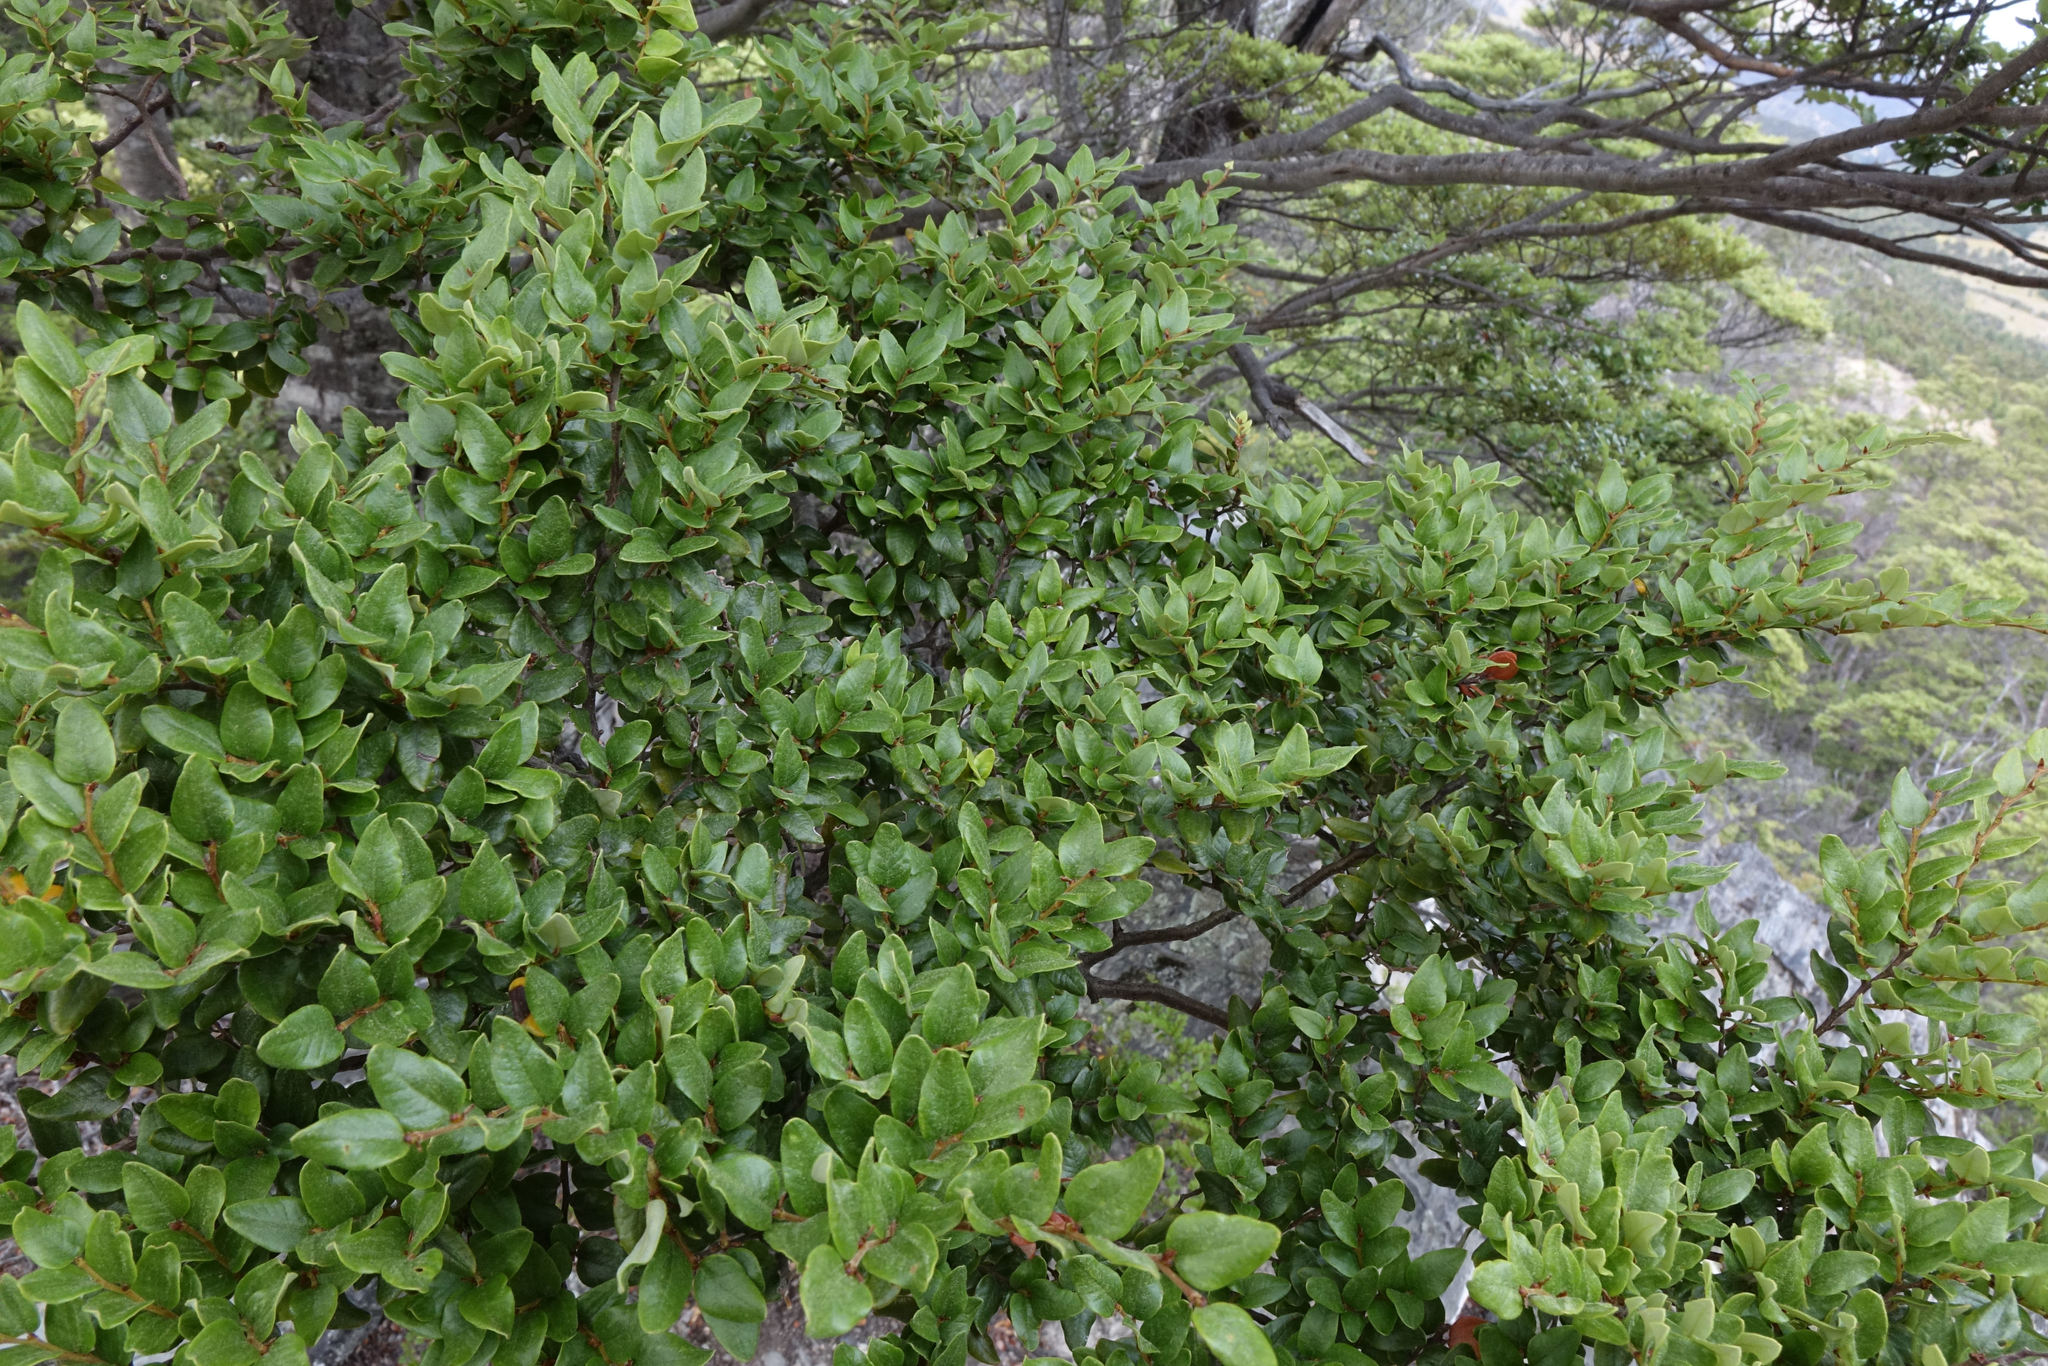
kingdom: Plantae
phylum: Tracheophyta
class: Magnoliopsida
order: Fagales
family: Nothofagaceae
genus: Nothofagus
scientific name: Nothofagus cliffortioides
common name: Mountain beech
